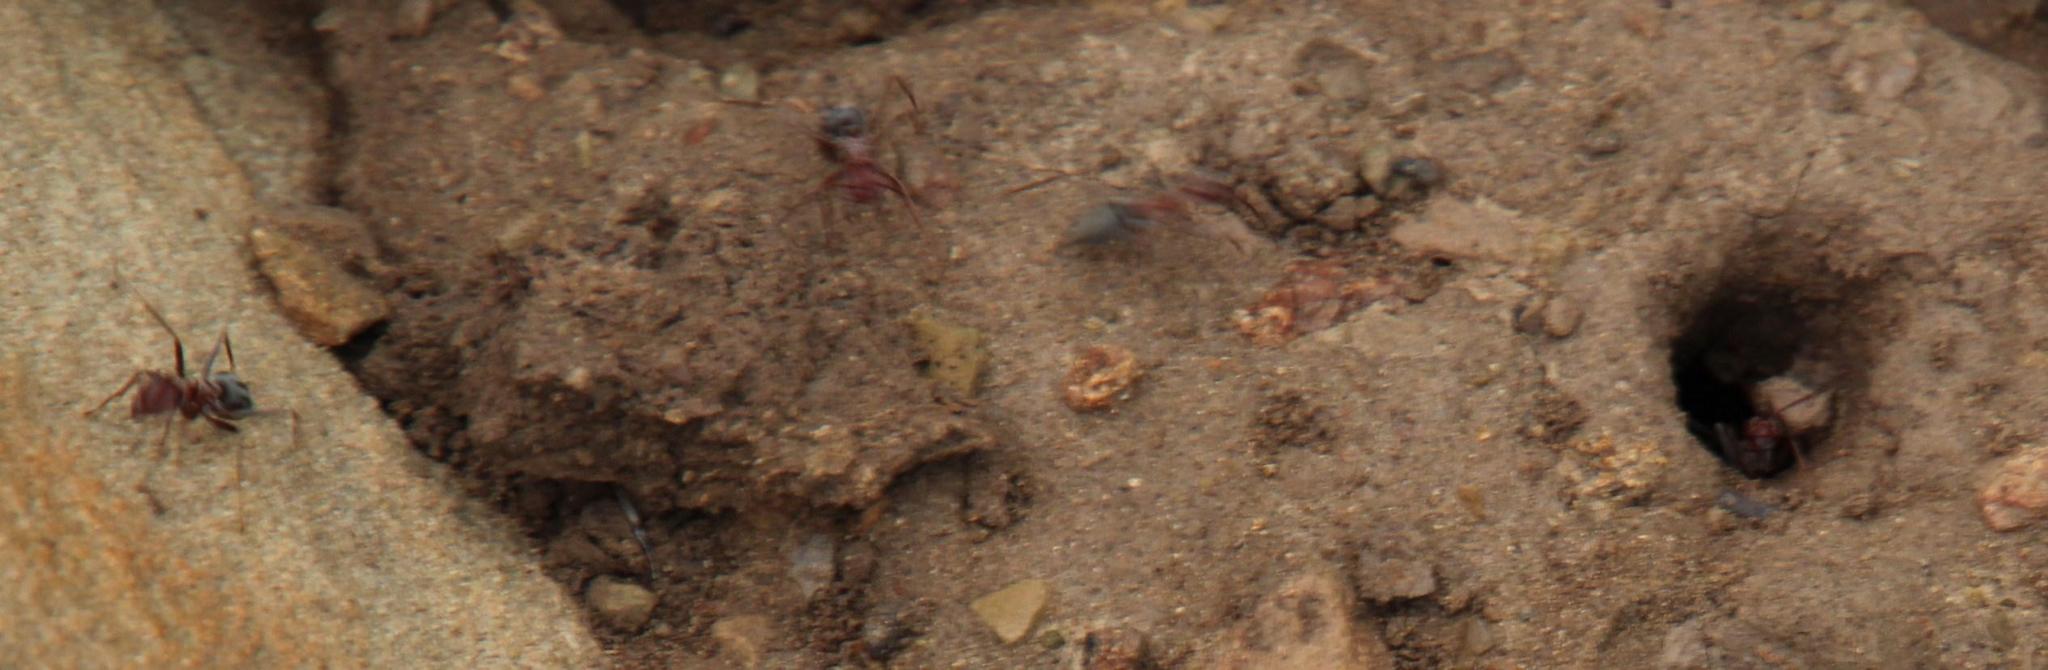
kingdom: Animalia
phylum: Arthropoda
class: Insecta
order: Hymenoptera
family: Formicidae
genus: Anoplolepis
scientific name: Anoplolepis custodiens
